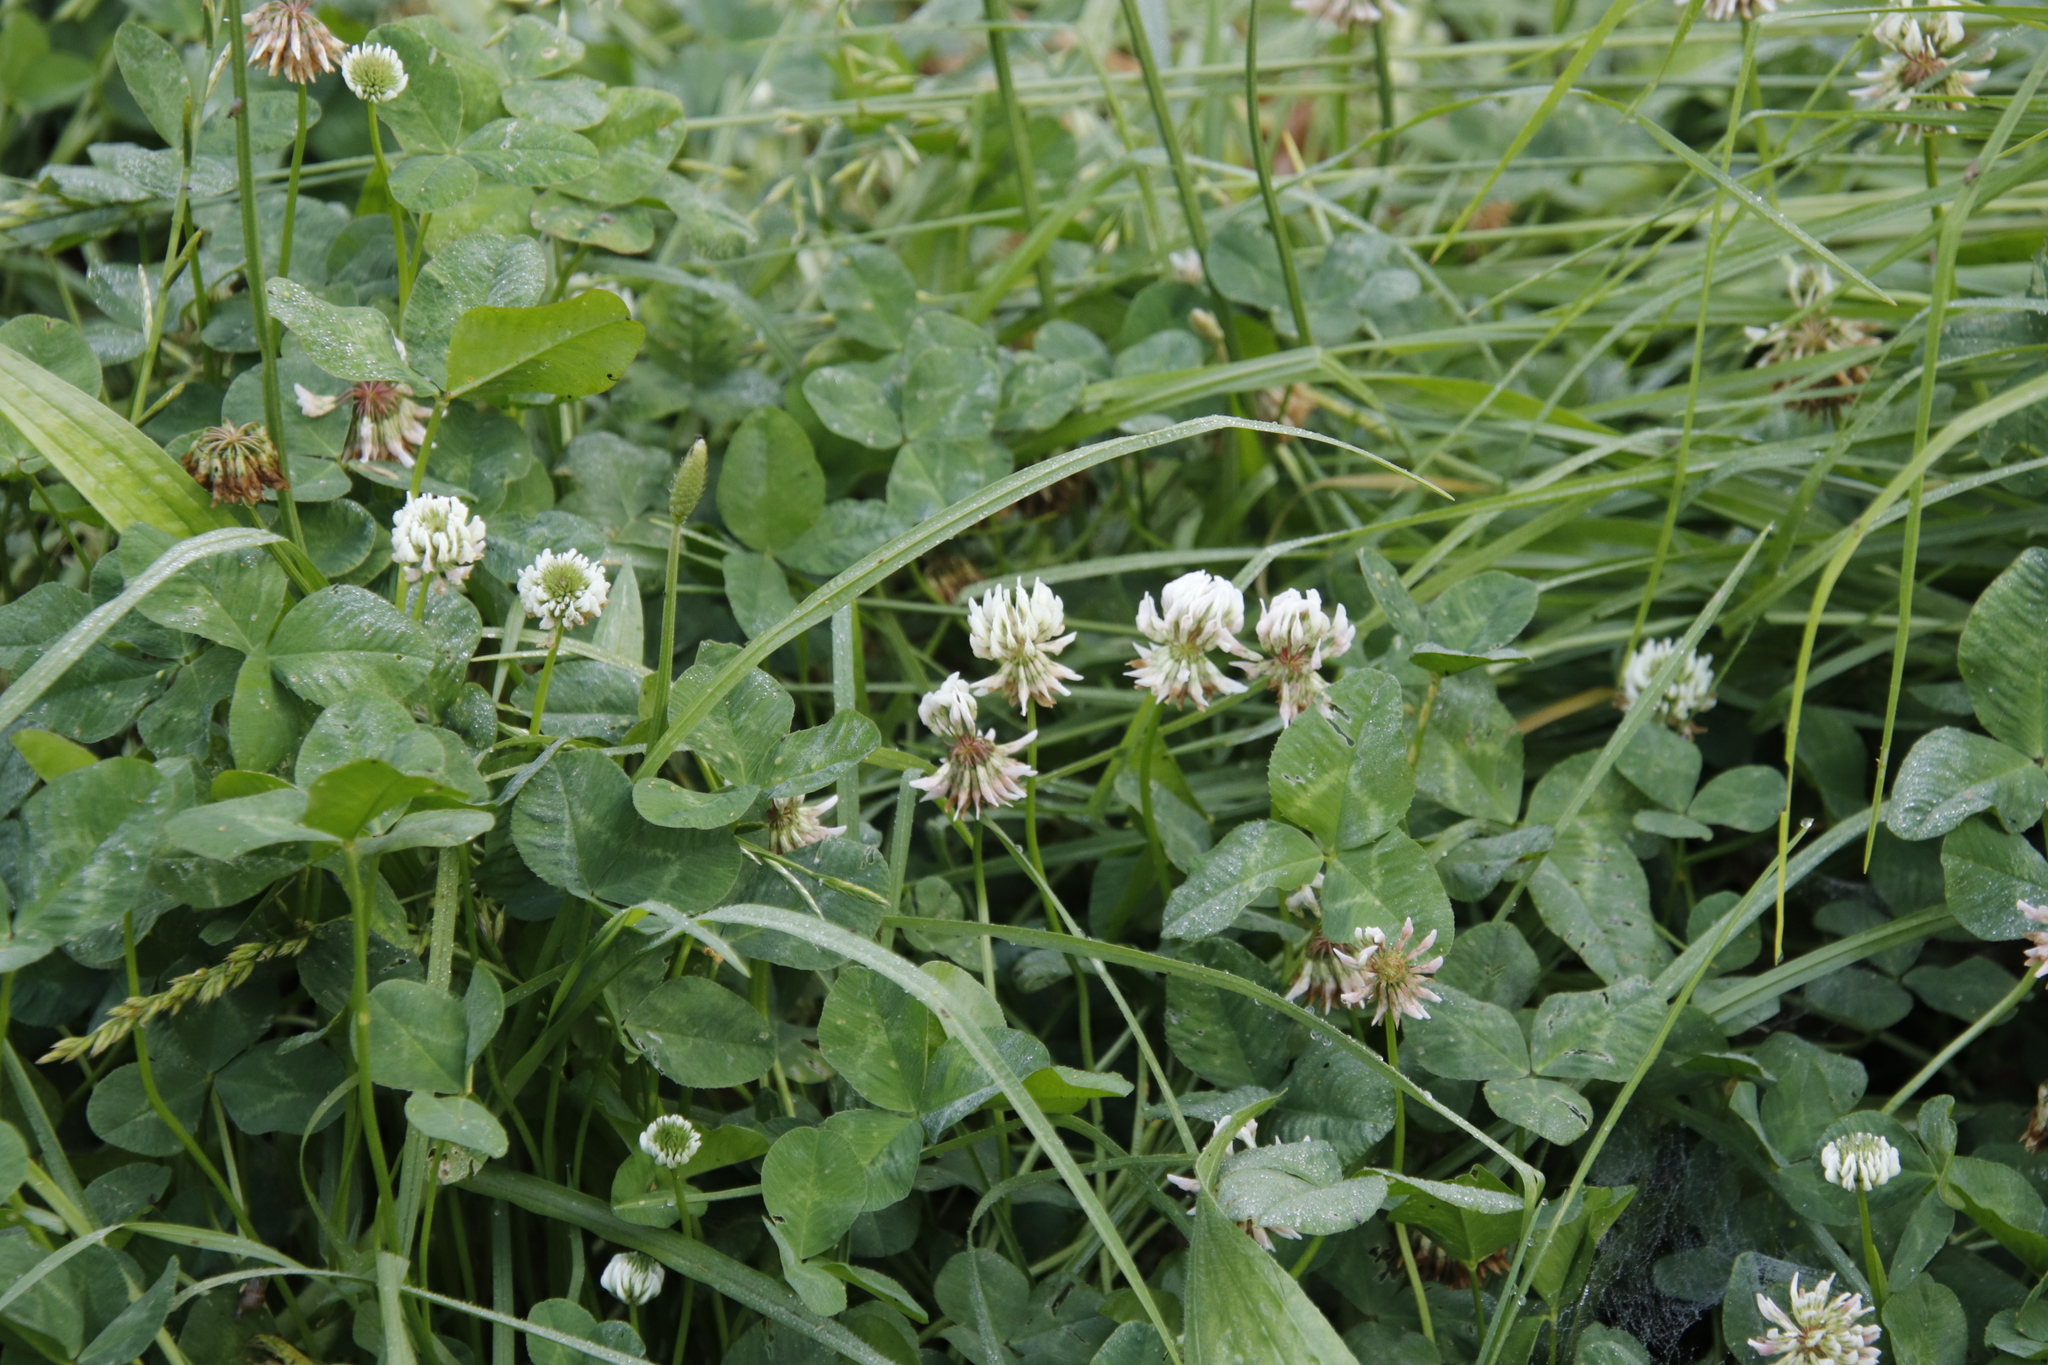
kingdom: Plantae
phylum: Tracheophyta
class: Magnoliopsida
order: Fabales
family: Fabaceae
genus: Trifolium
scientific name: Trifolium repens
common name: White clover
